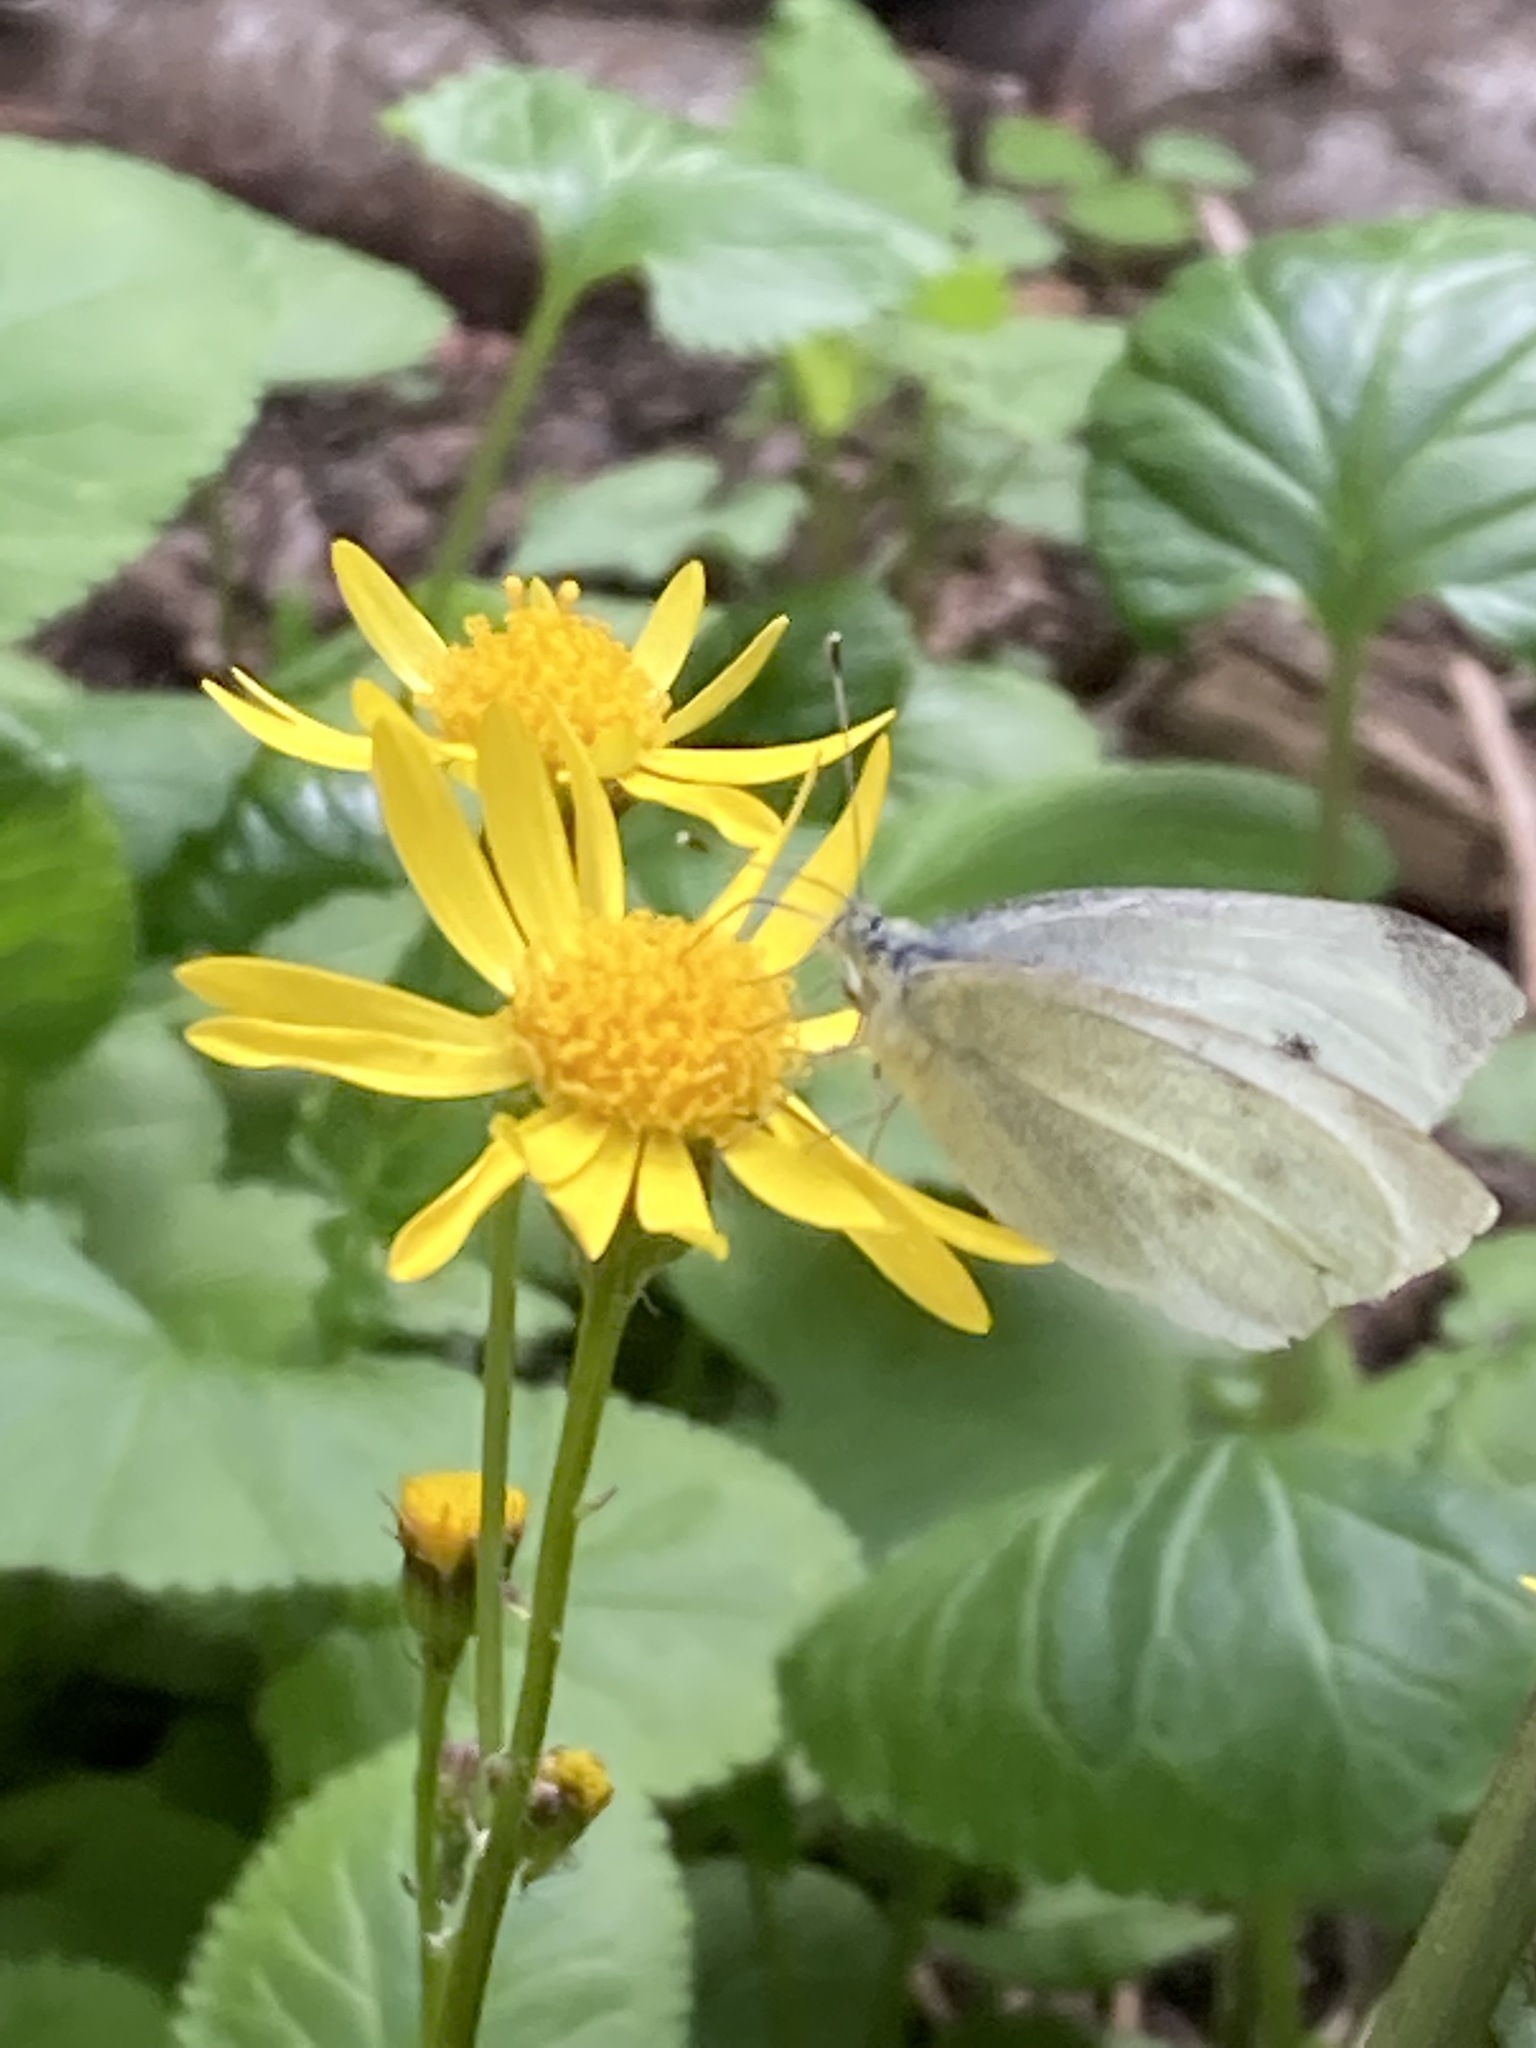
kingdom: Animalia
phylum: Arthropoda
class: Insecta
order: Lepidoptera
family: Pieridae
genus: Pieris
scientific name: Pieris rapae
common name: Small white
